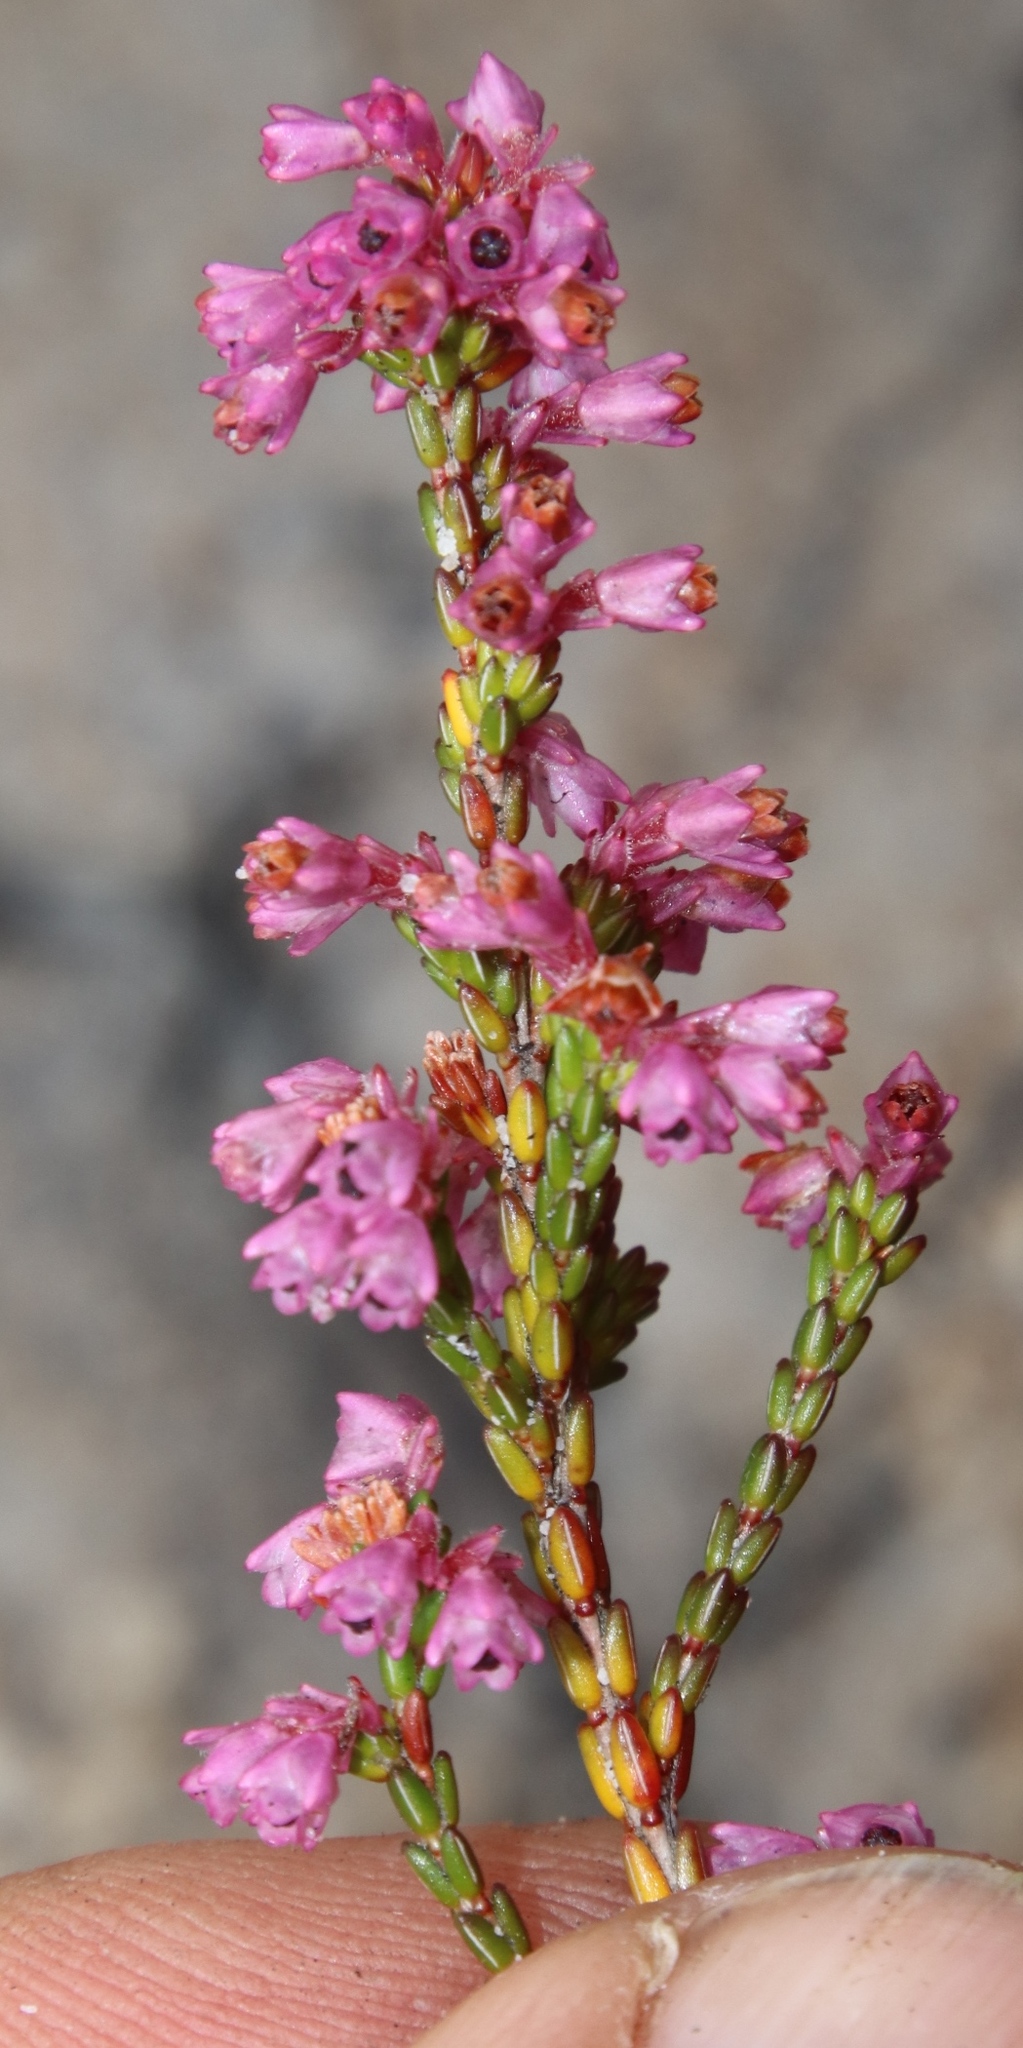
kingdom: Plantae
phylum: Tracheophyta
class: Magnoliopsida
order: Ericales
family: Ericaceae
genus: Erica
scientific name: Erica gnaphaloides
